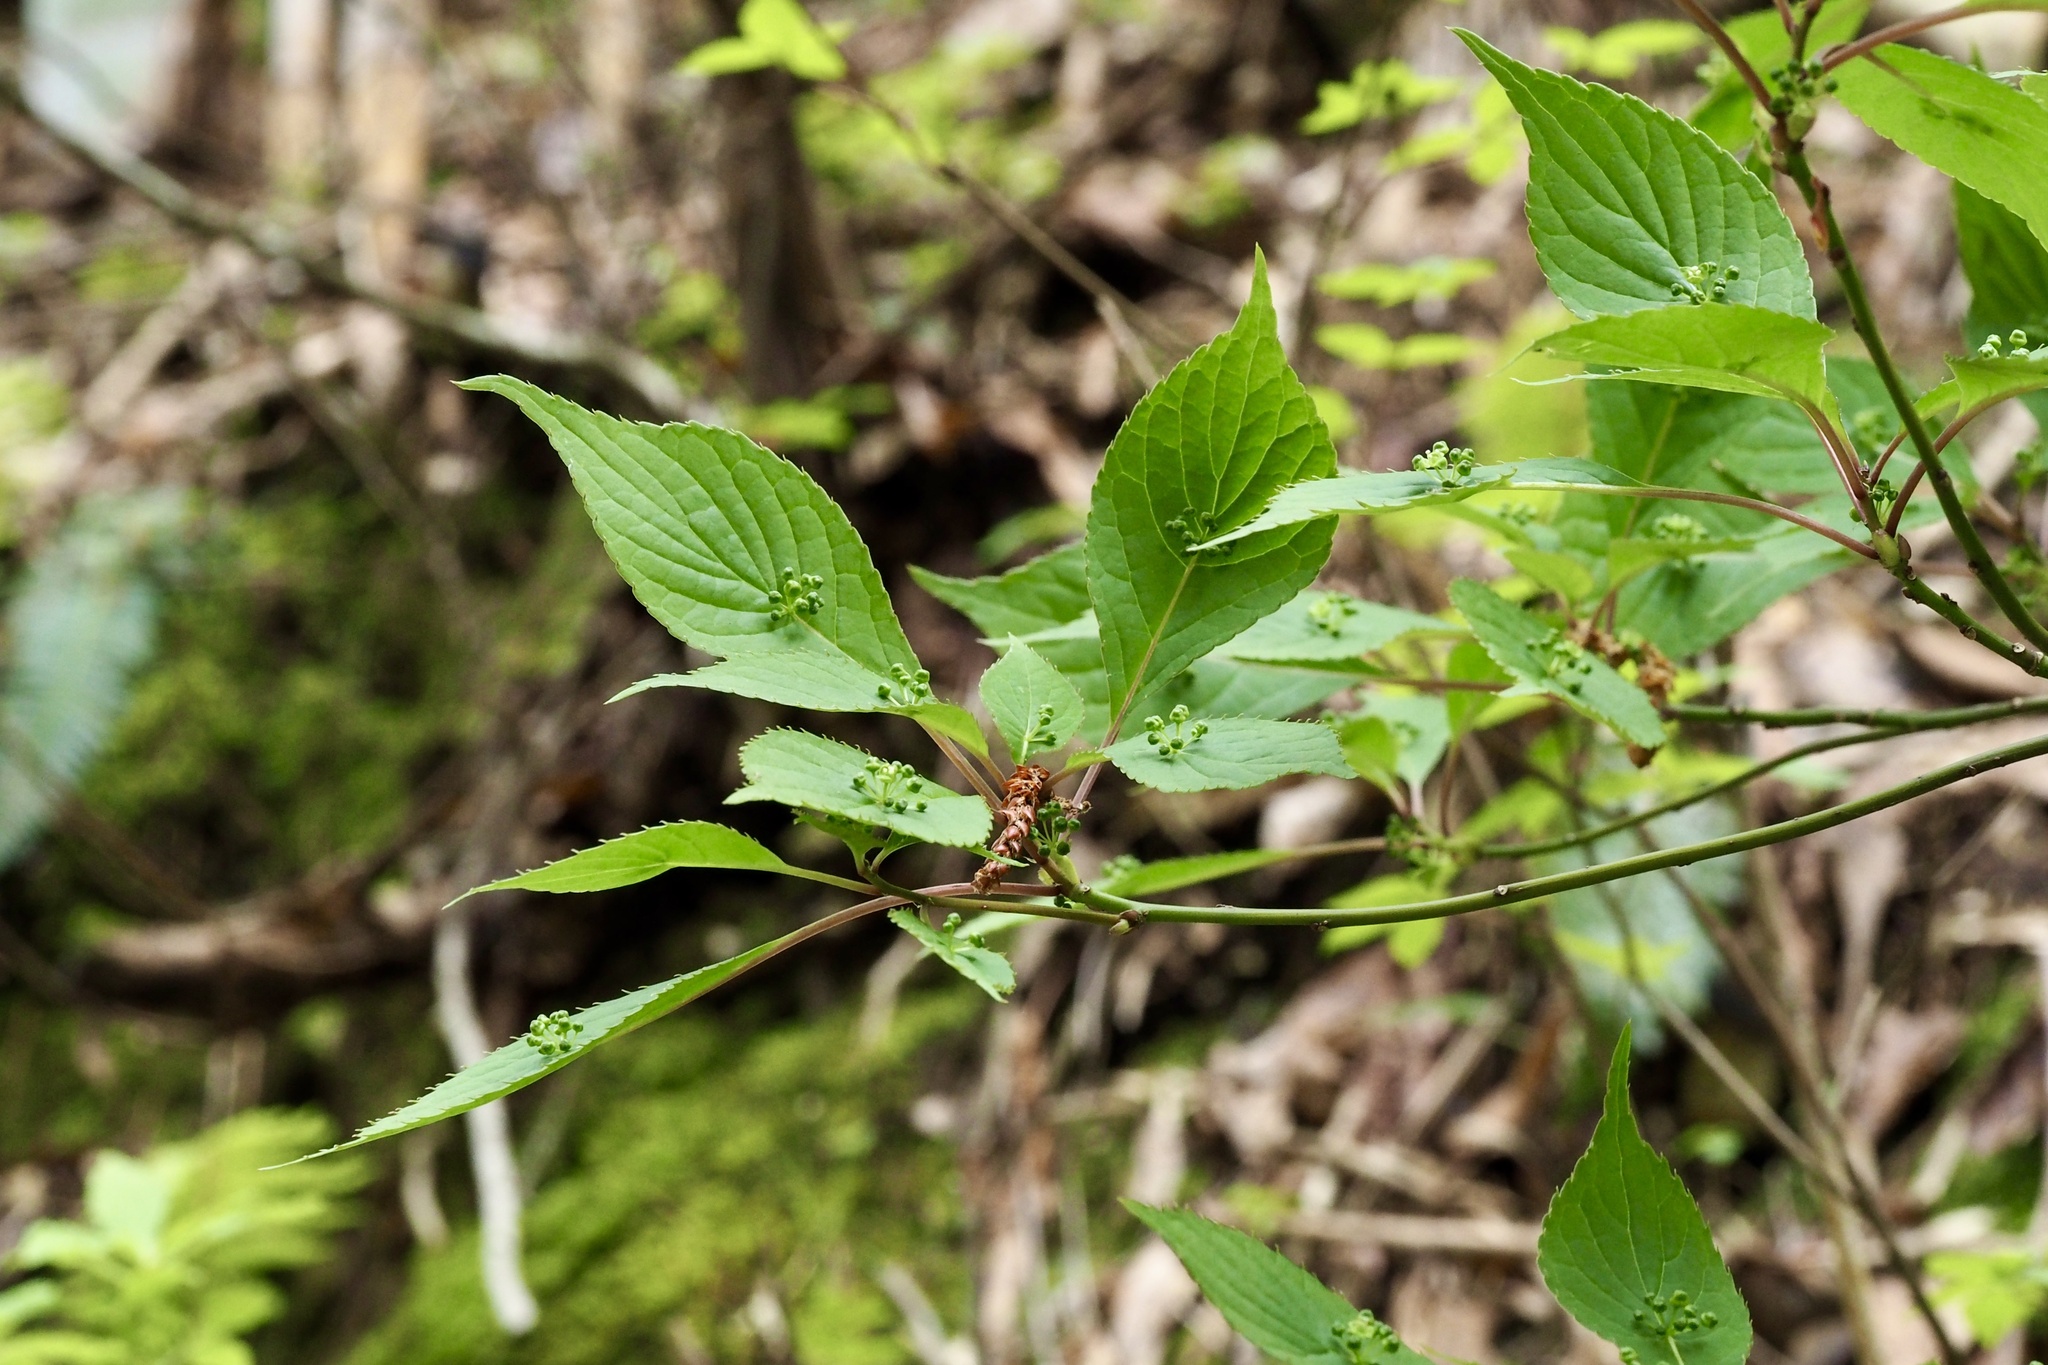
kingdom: Plantae
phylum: Tracheophyta
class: Magnoliopsida
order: Aquifoliales
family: Helwingiaceae
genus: Helwingia
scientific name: Helwingia japonica
